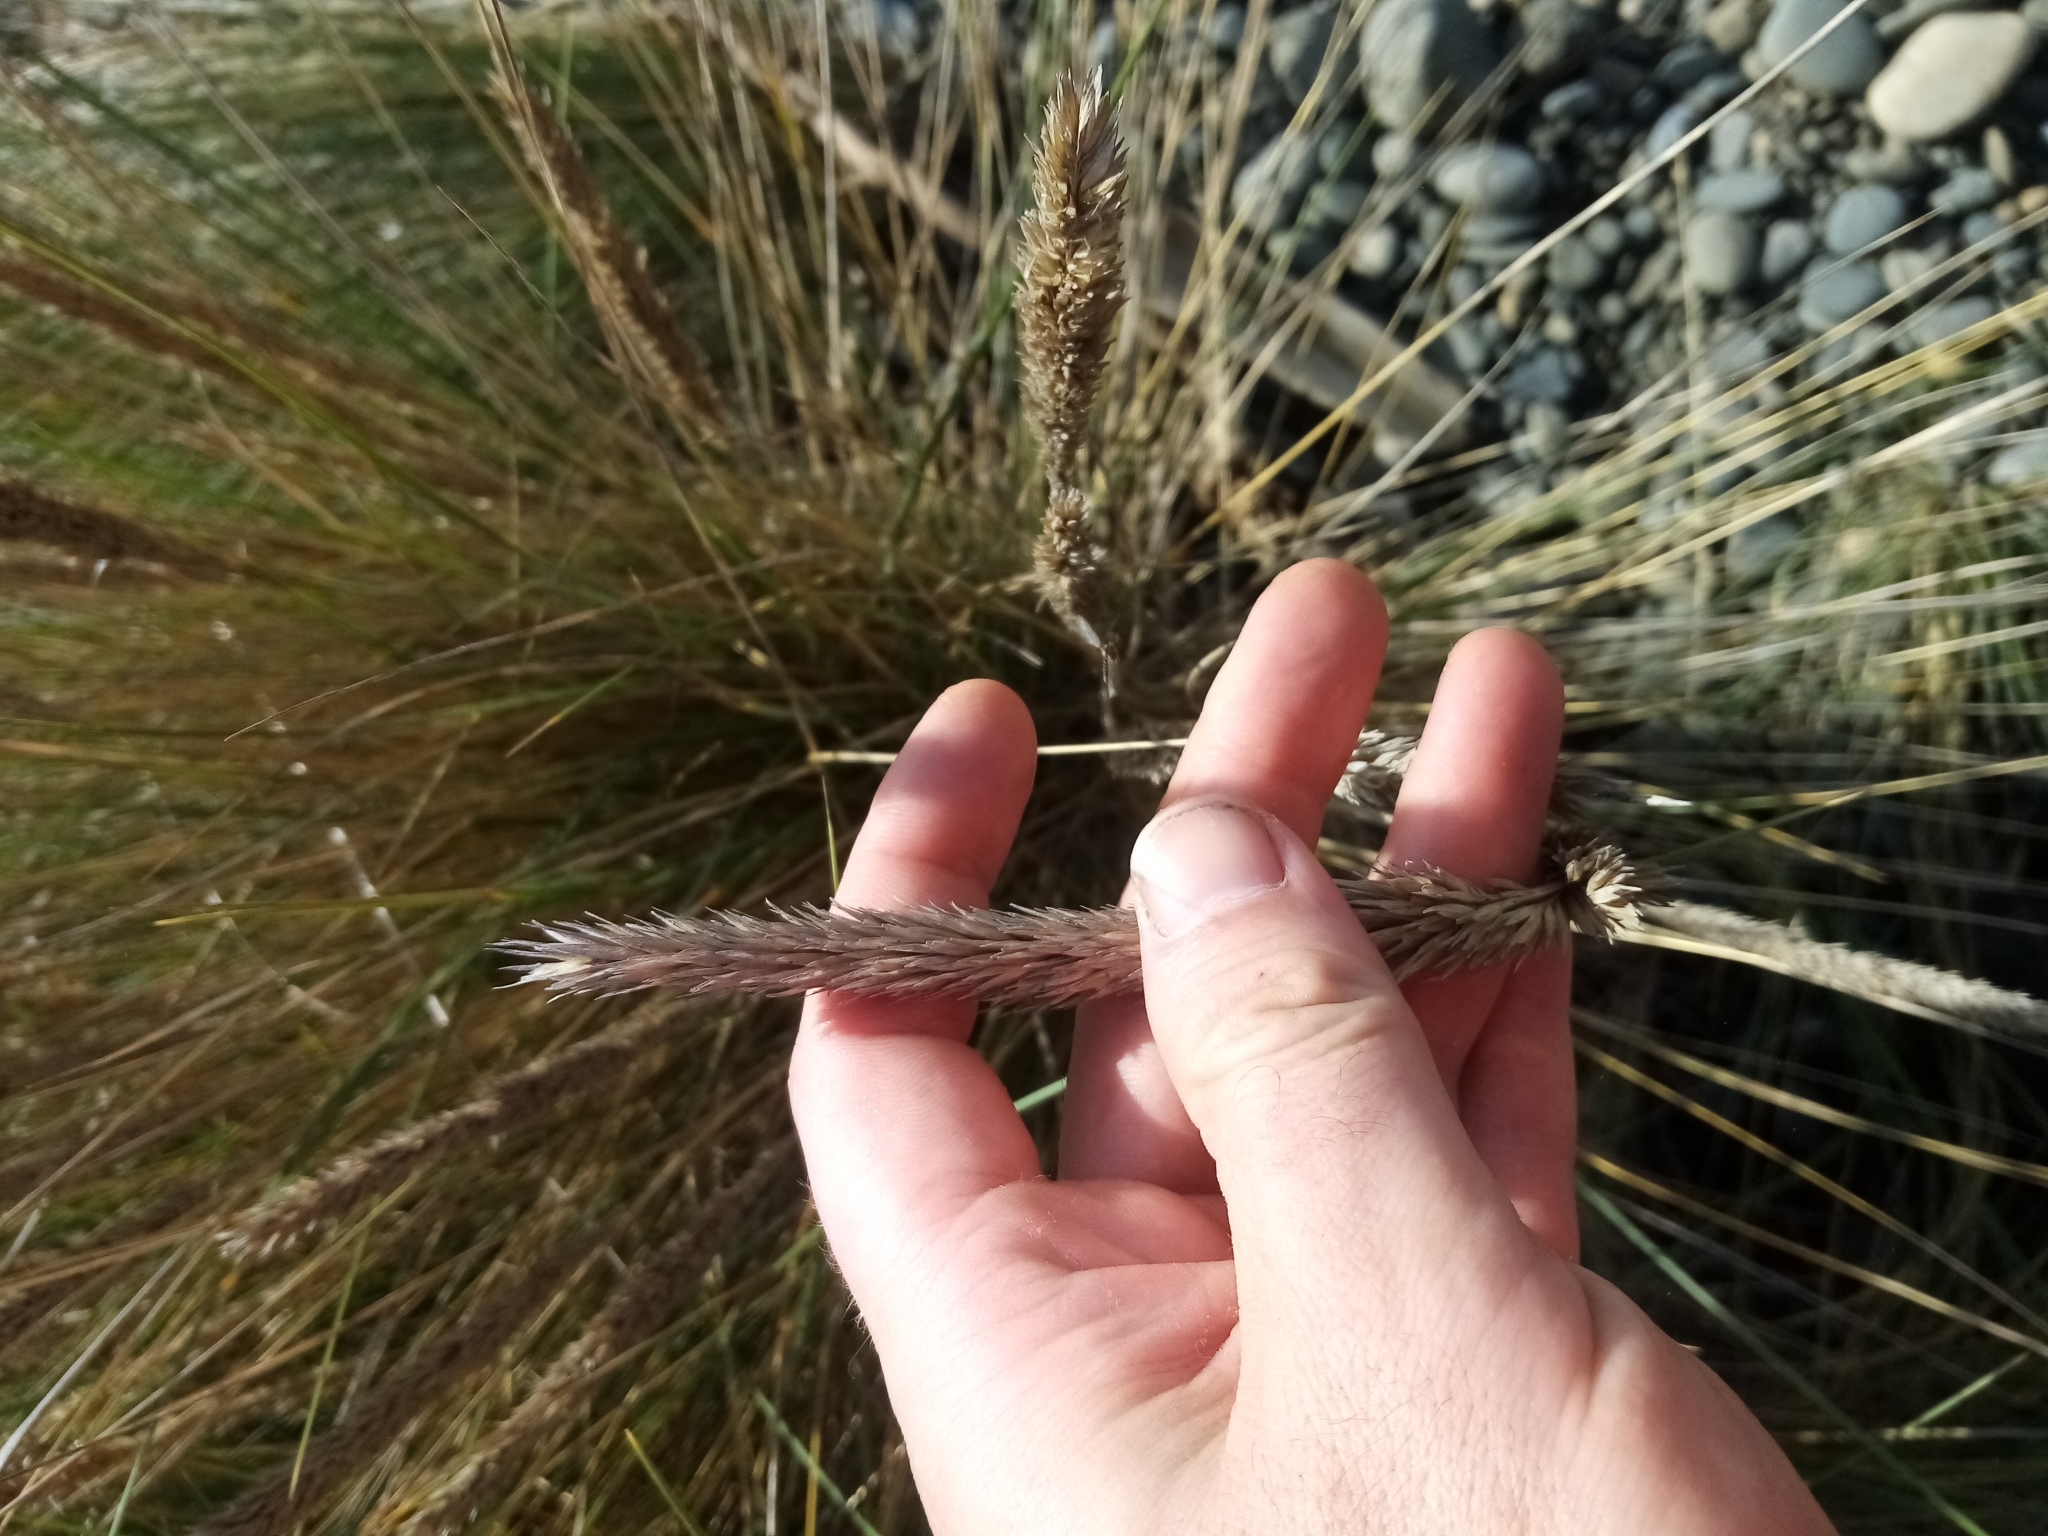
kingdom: Plantae
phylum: Tracheophyta
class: Liliopsida
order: Poales
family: Poaceae
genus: Calamagrostis
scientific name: Calamagrostis arenaria
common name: European beachgrass
